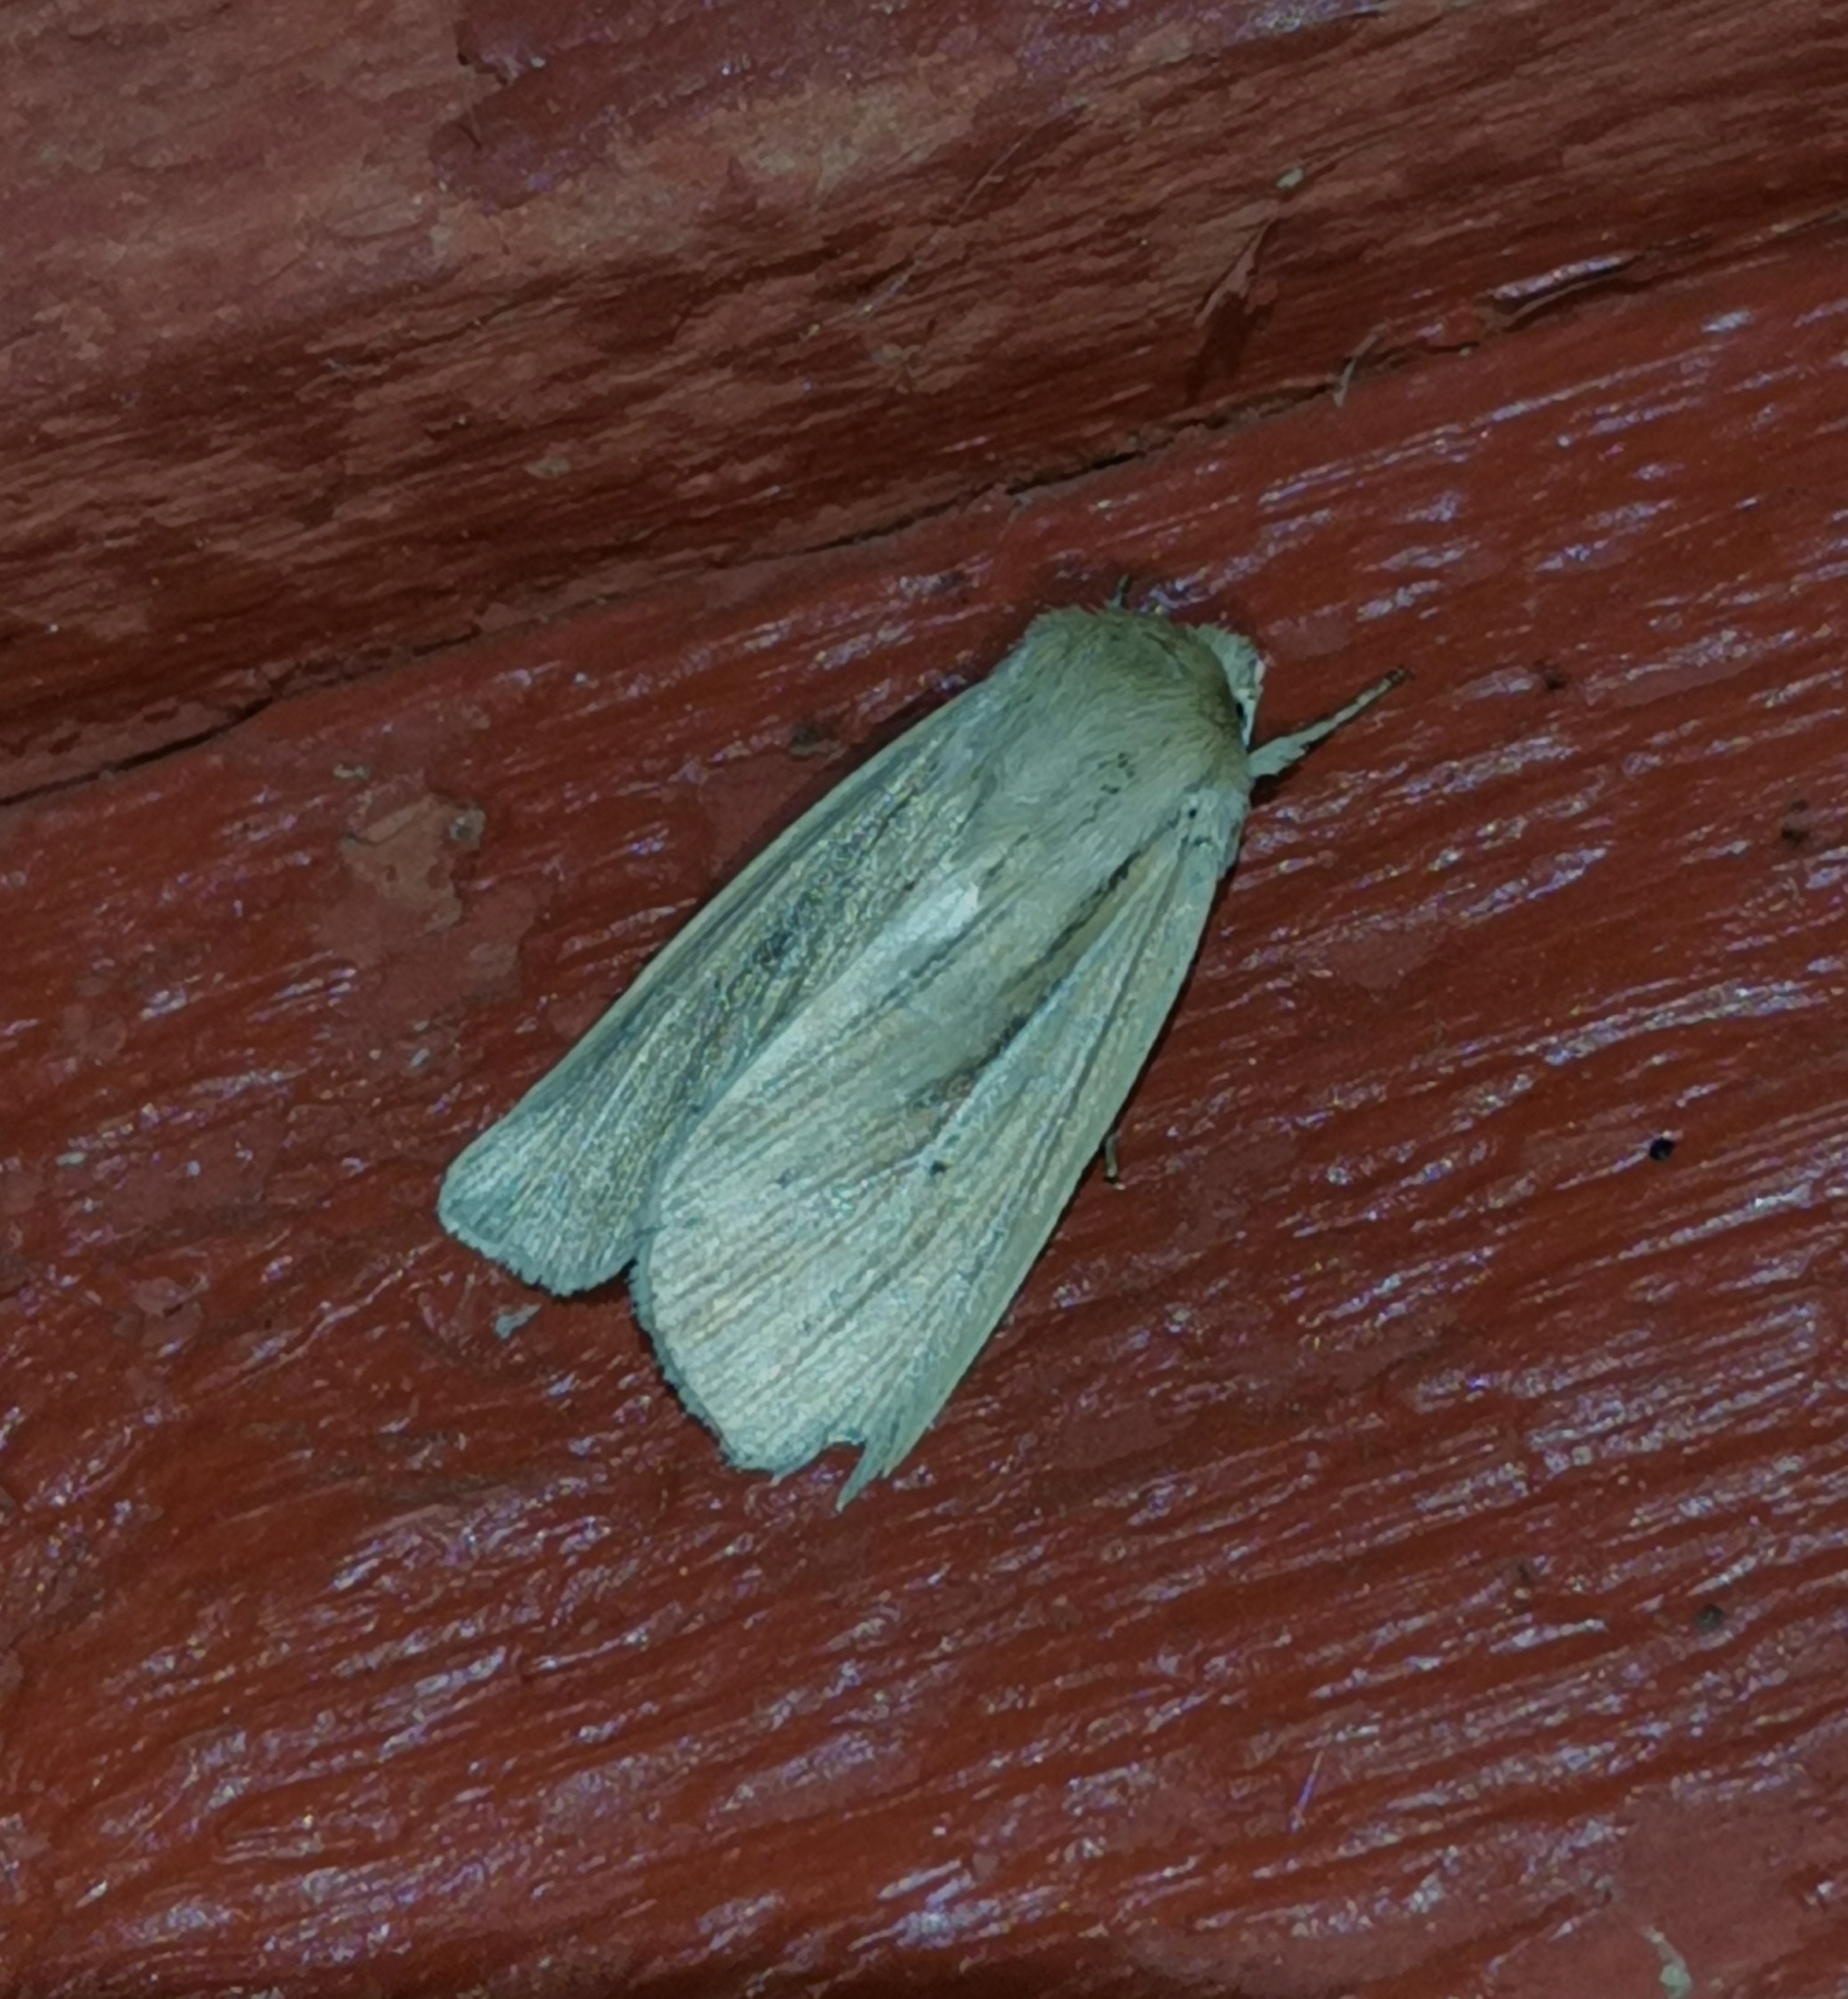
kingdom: Animalia
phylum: Arthropoda
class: Insecta
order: Lepidoptera
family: Noctuidae
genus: Mythimna
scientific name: Mythimna impura
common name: Smoky wainscot
